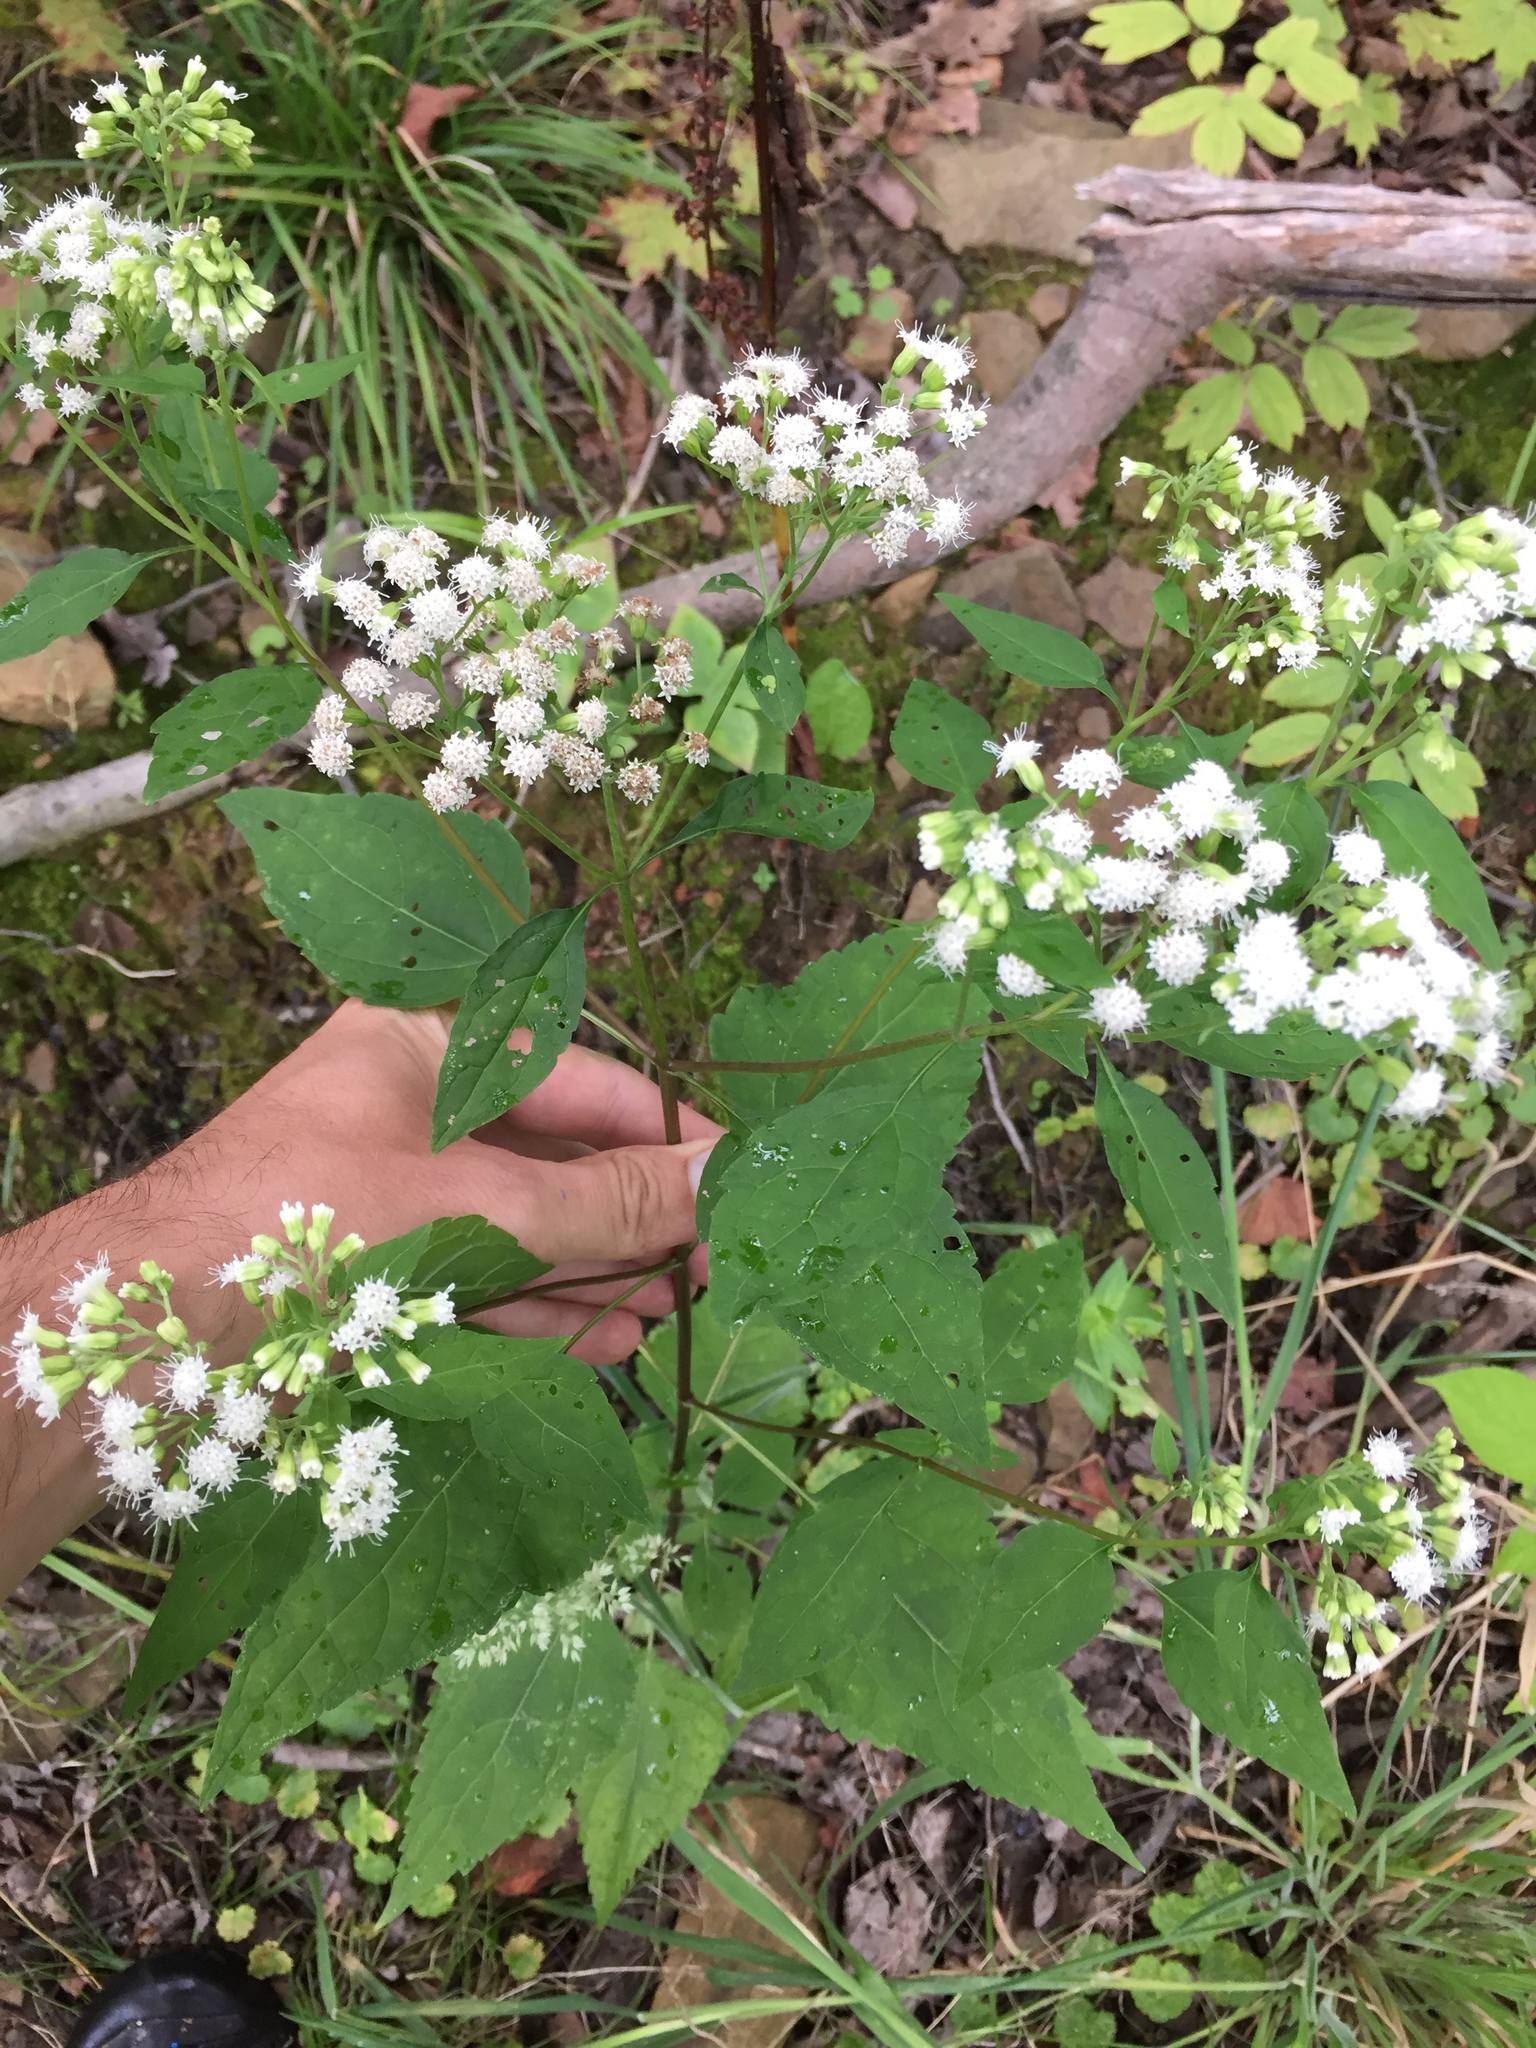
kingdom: Plantae
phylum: Tracheophyta
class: Magnoliopsida
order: Asterales
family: Asteraceae
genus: Ageratina
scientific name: Ageratina altissima
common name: White snakeroot
